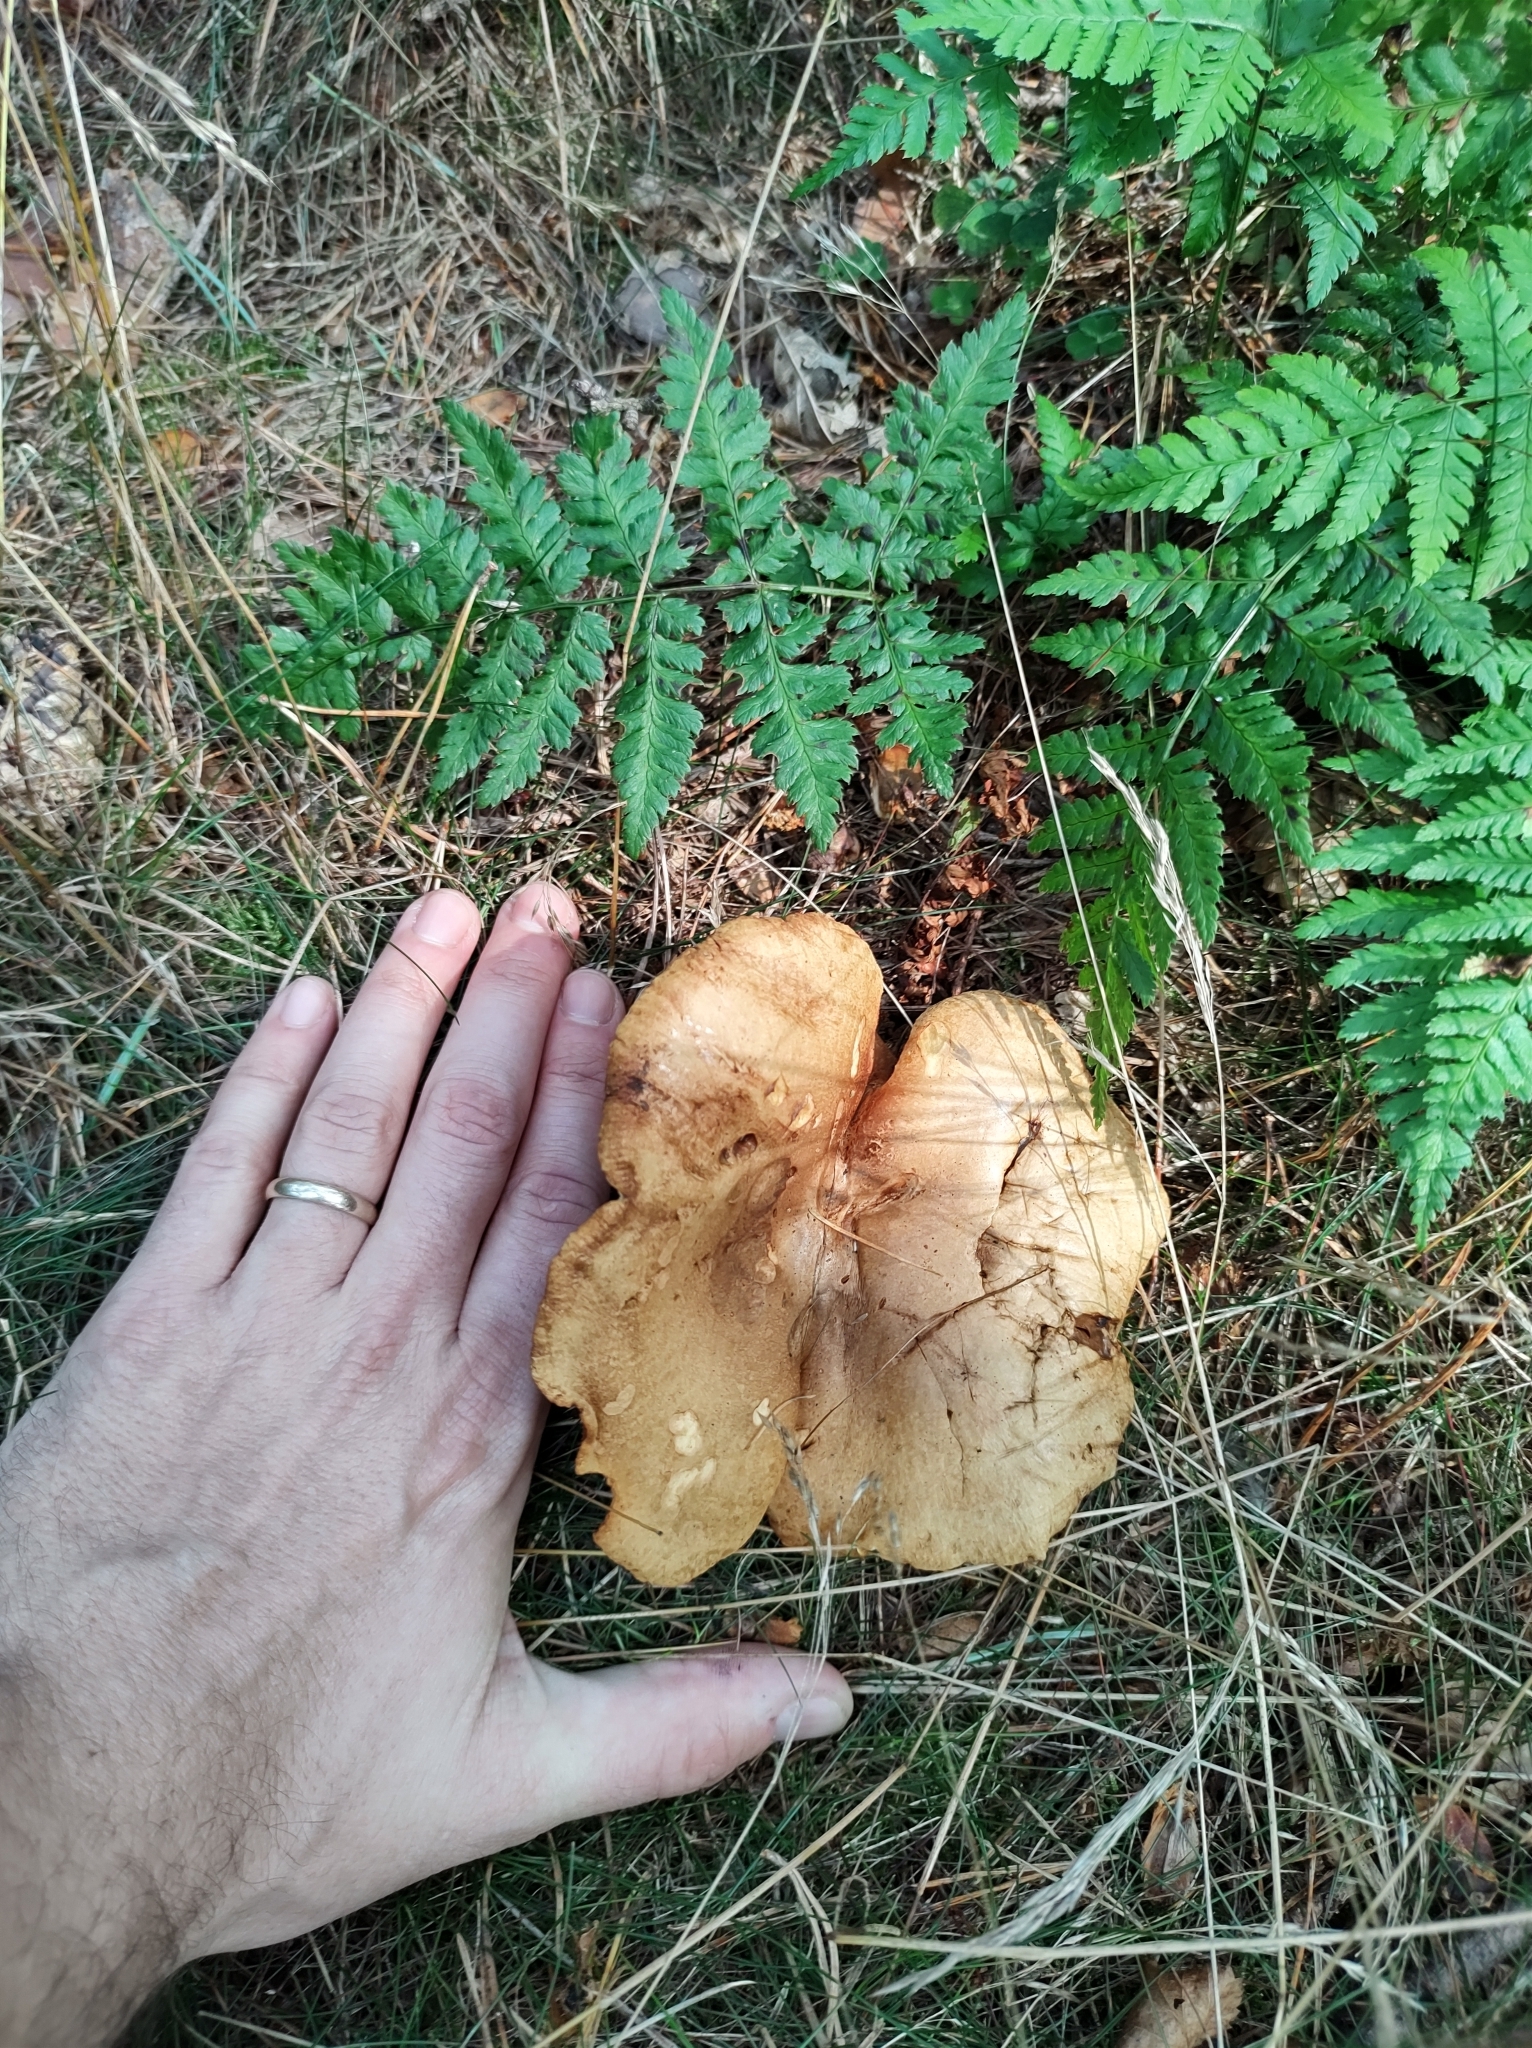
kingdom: Fungi
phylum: Basidiomycota
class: Agaricomycetes
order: Boletales
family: Paxillaceae
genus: Paxillus
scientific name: Paxillus involutus
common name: Brown roll rim
